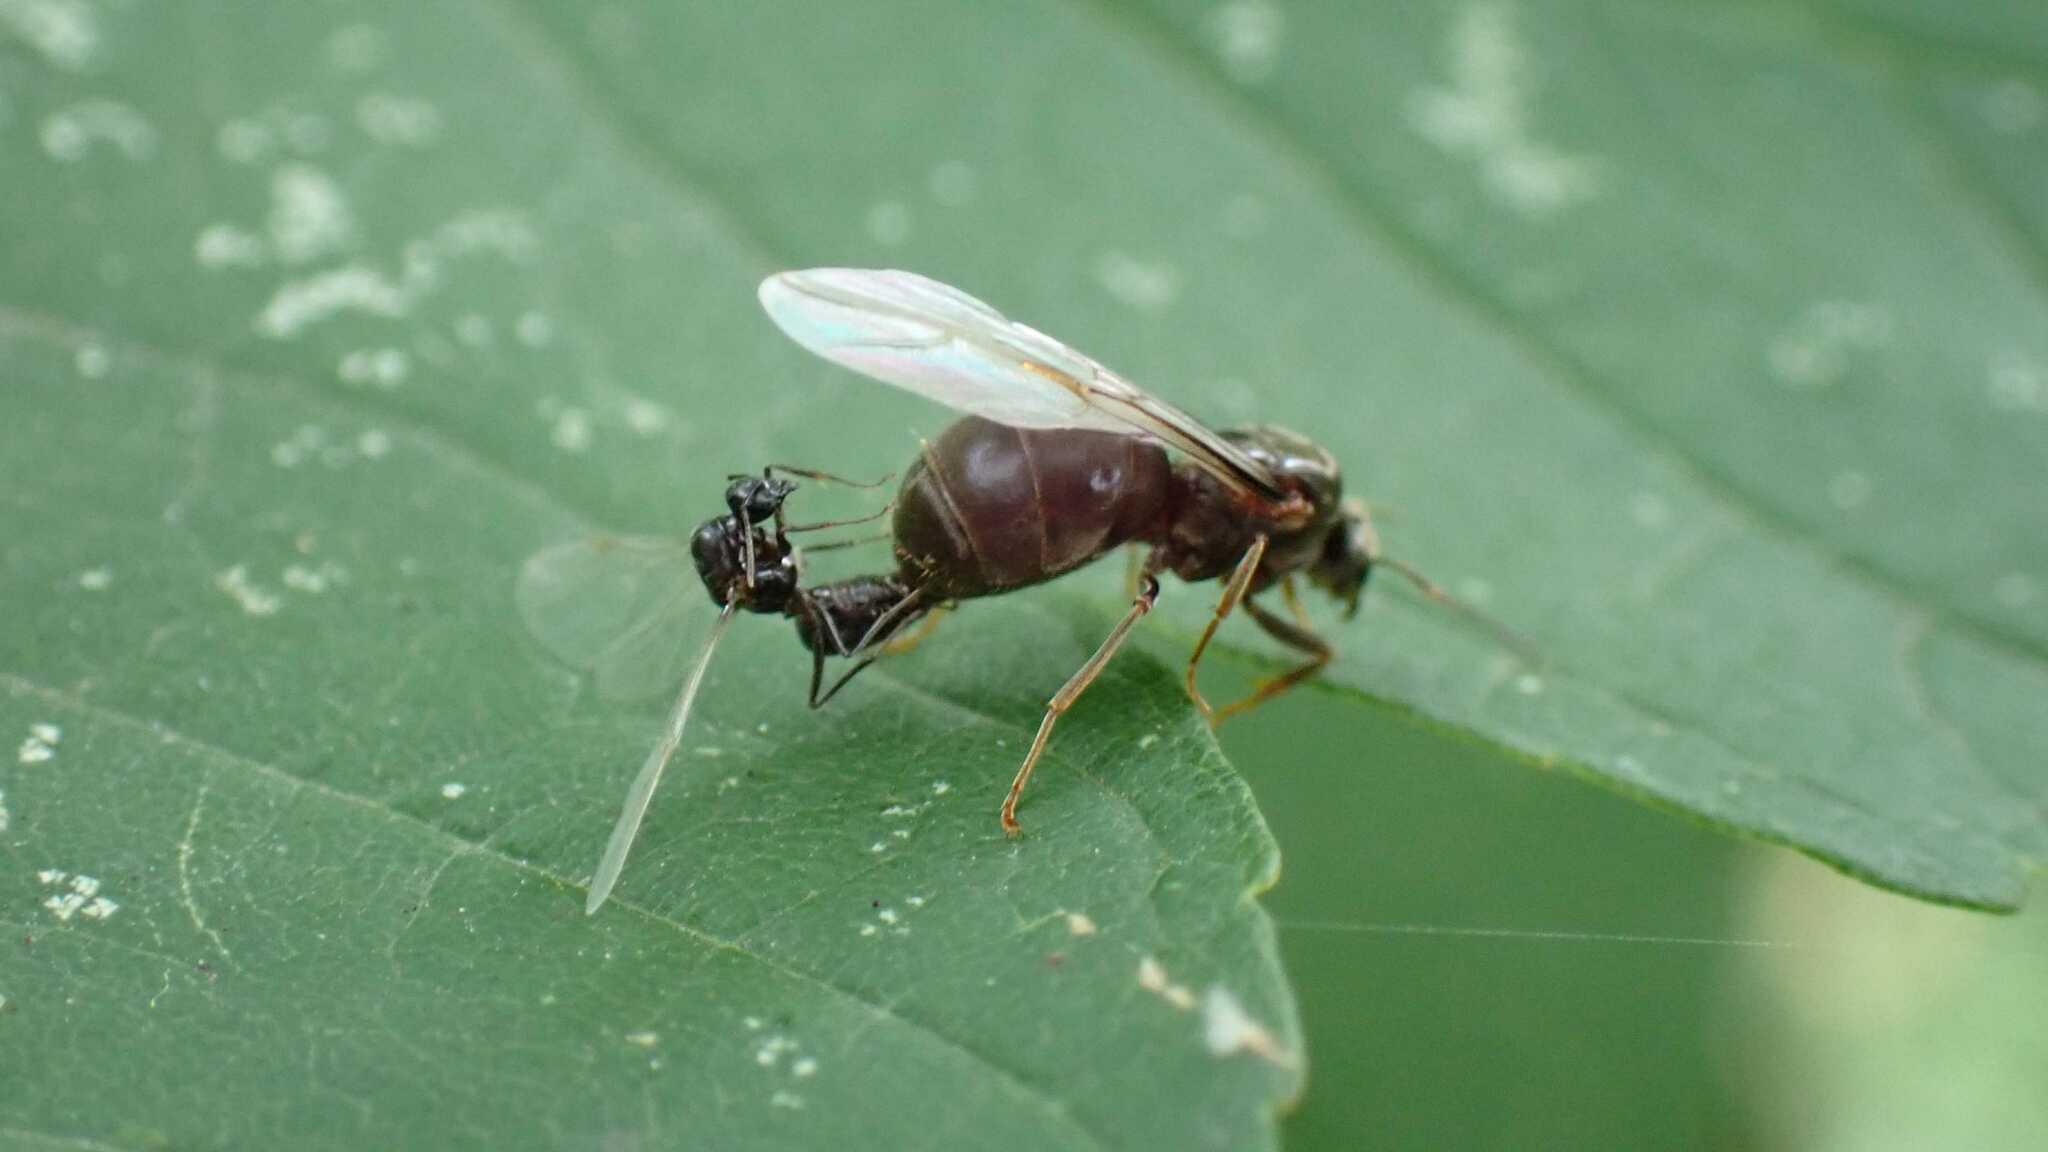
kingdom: Animalia
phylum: Arthropoda
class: Insecta
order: Hymenoptera
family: Formicidae
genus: Lasius
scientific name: Lasius
